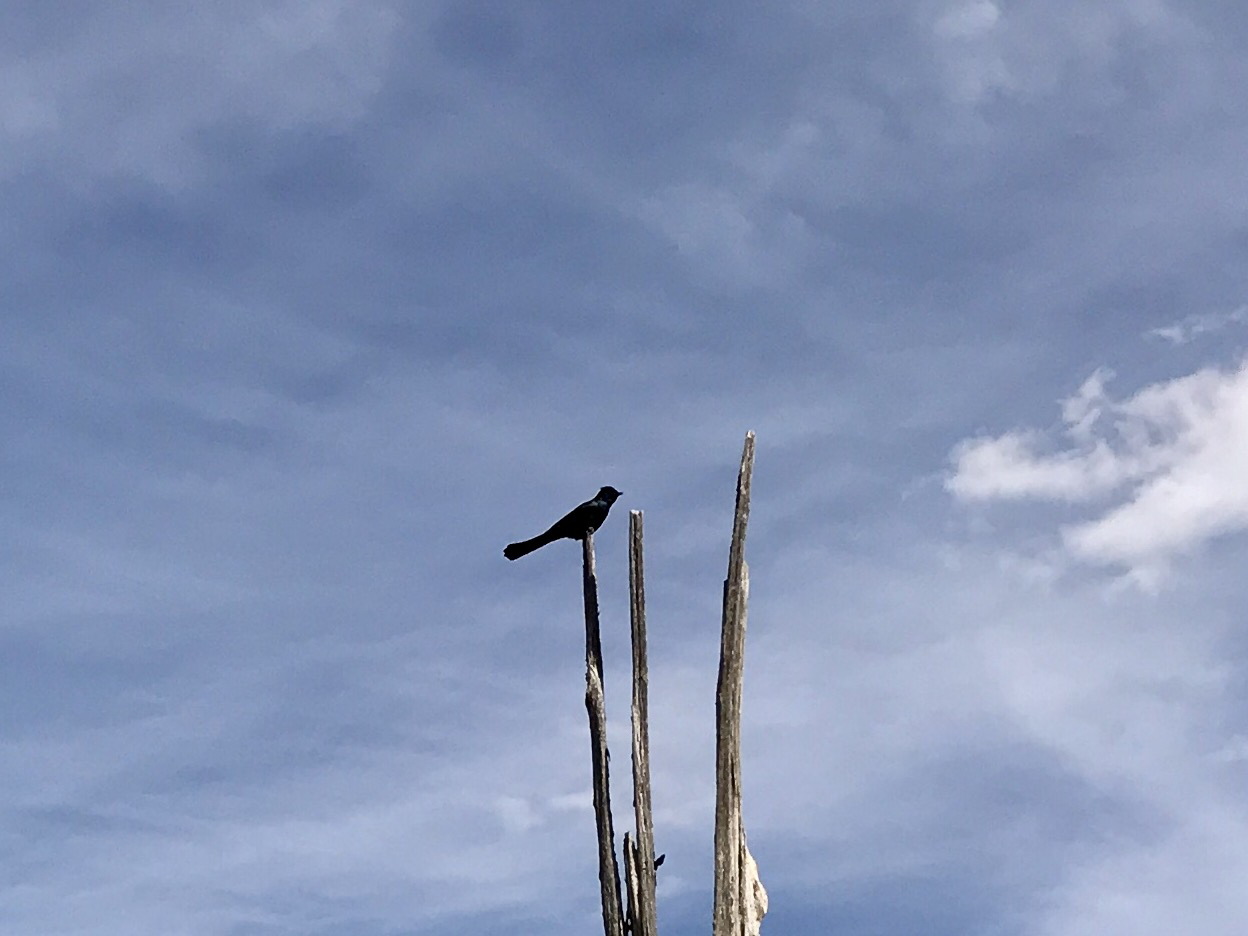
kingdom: Animalia
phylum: Chordata
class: Aves
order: Passeriformes
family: Ptilogonatidae
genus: Phainopepla
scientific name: Phainopepla nitens
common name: Phainopepla
